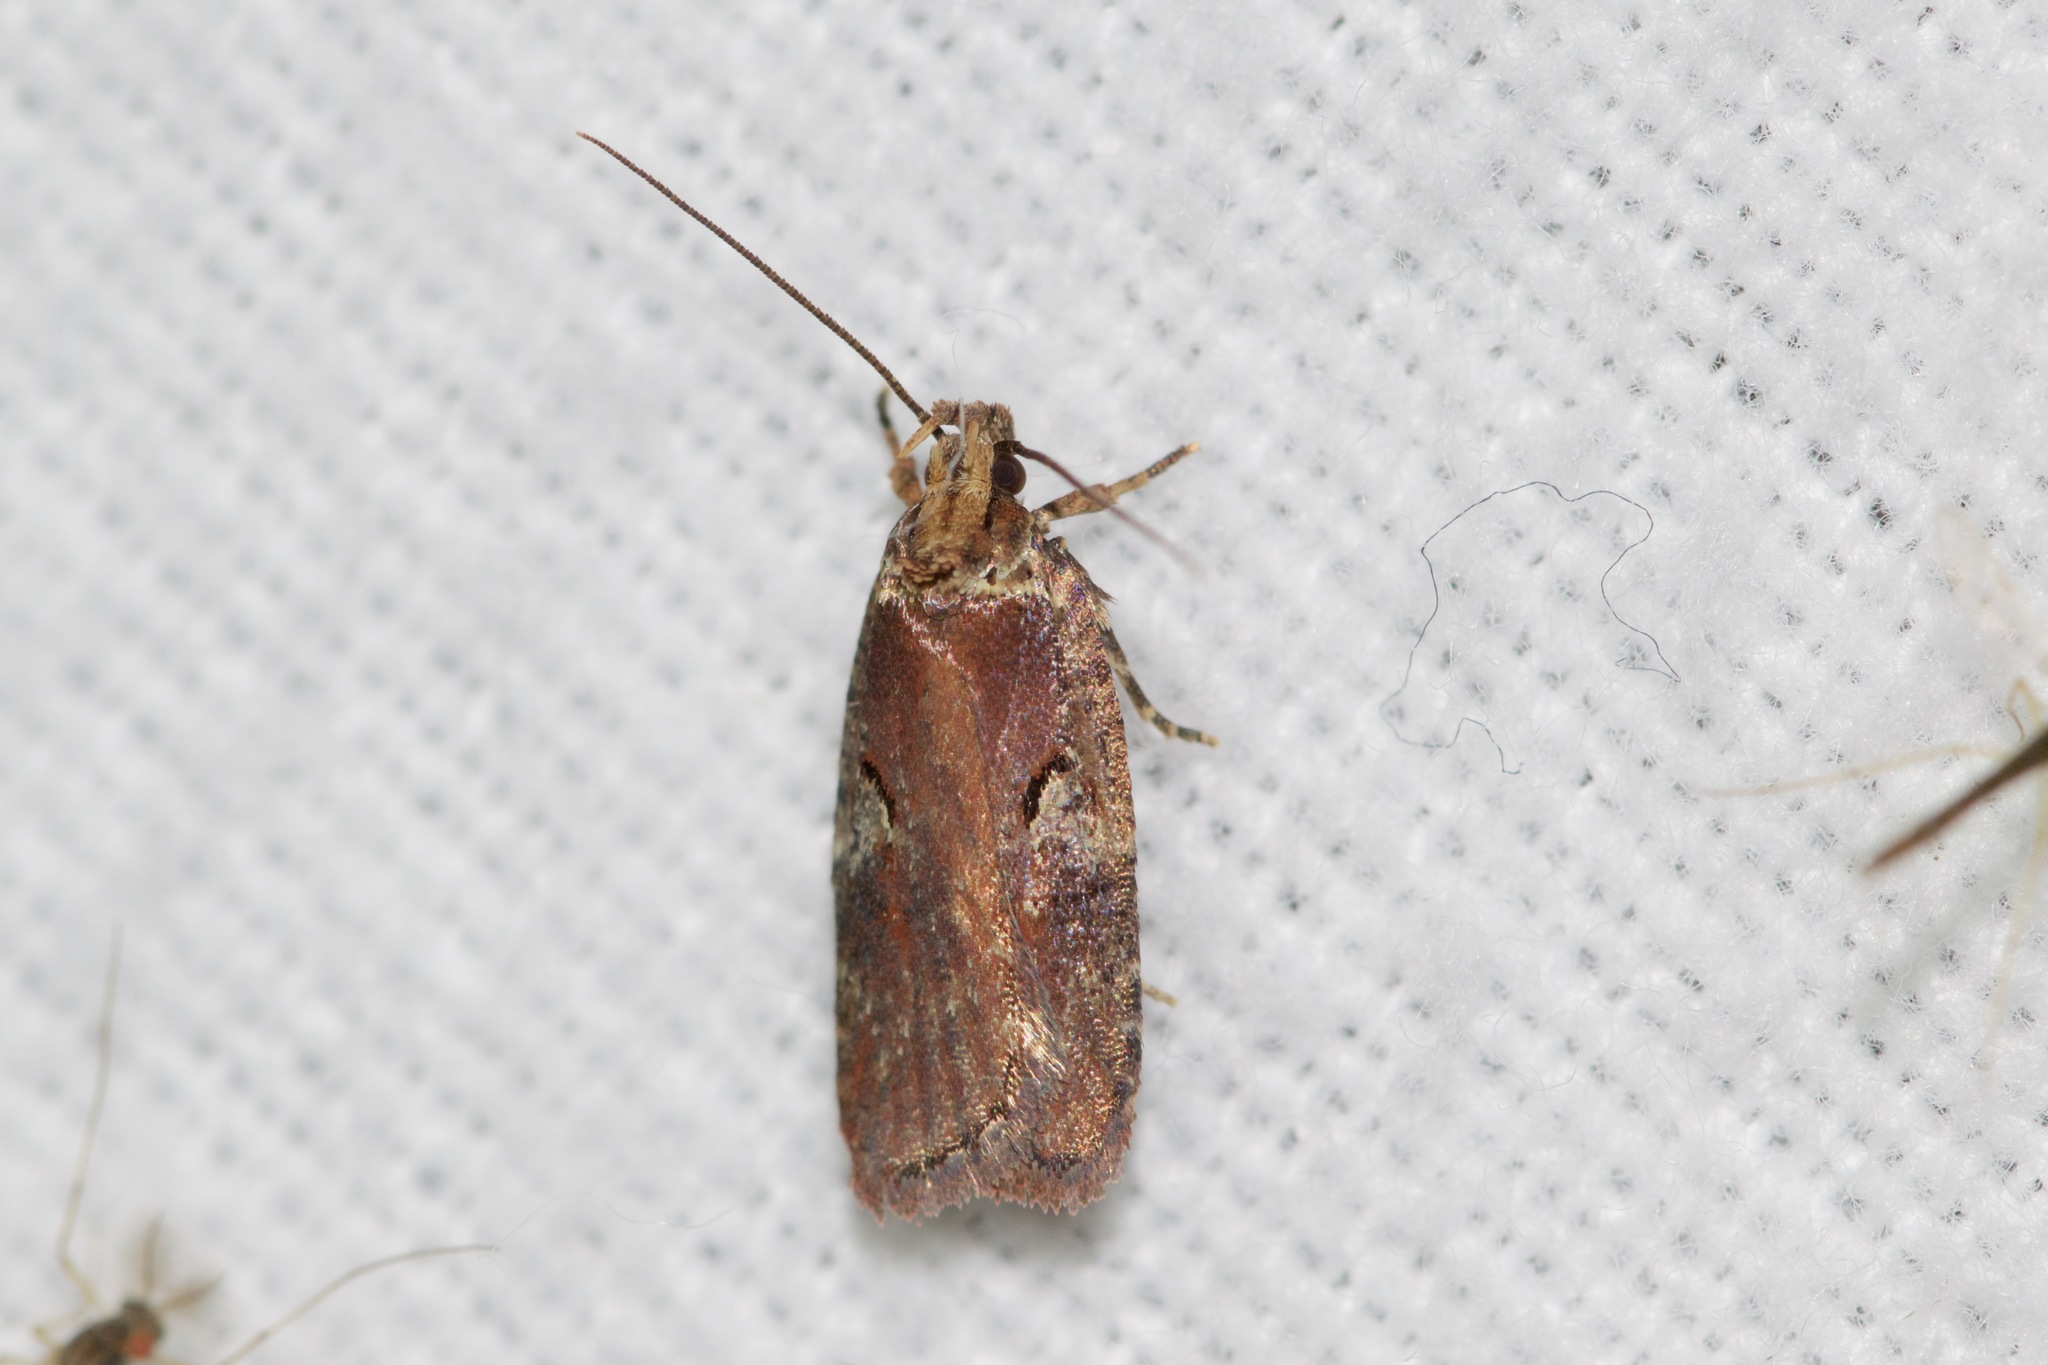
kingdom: Animalia
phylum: Arthropoda
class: Insecta
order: Lepidoptera
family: Depressariidae
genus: Agonopterix
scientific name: Agonopterix lythrella
